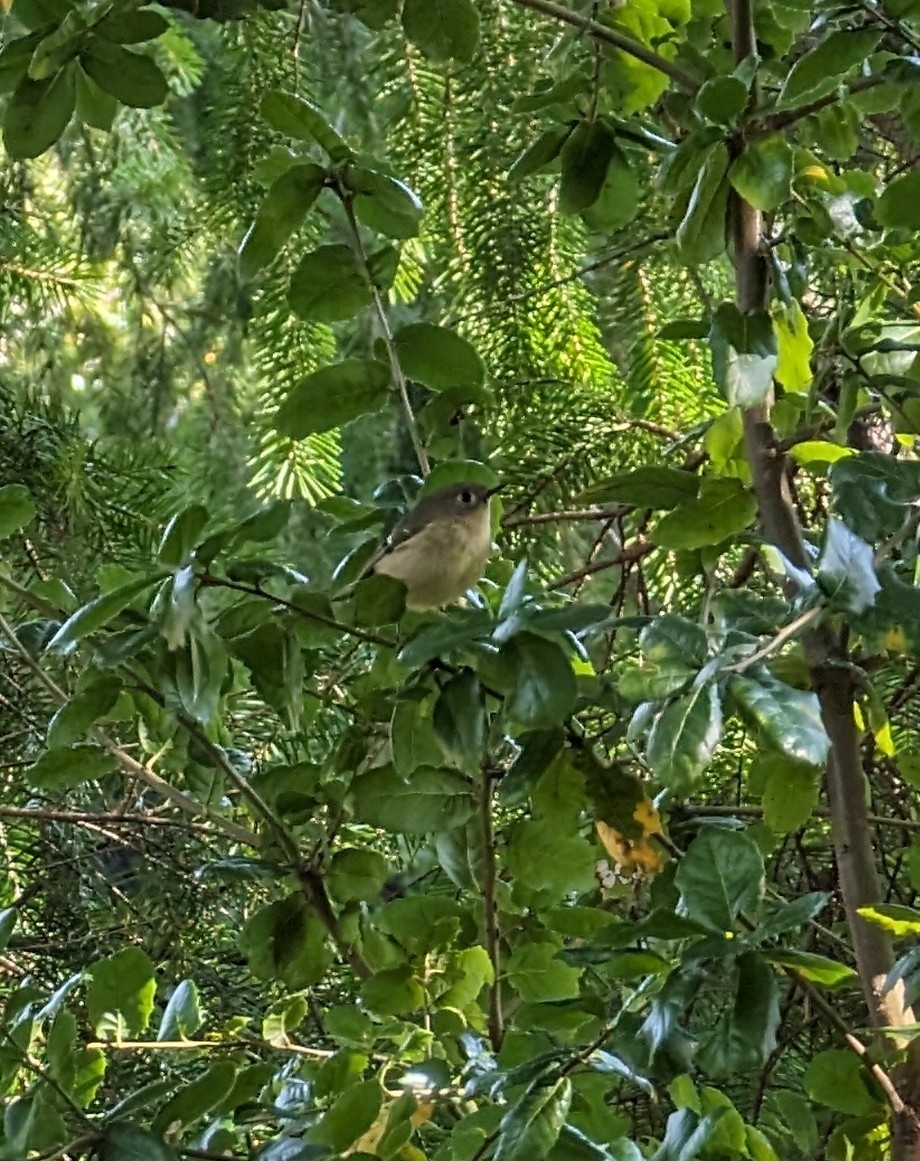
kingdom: Animalia
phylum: Chordata
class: Aves
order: Passeriformes
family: Regulidae
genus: Regulus
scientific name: Regulus calendula
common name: Ruby-crowned kinglet
